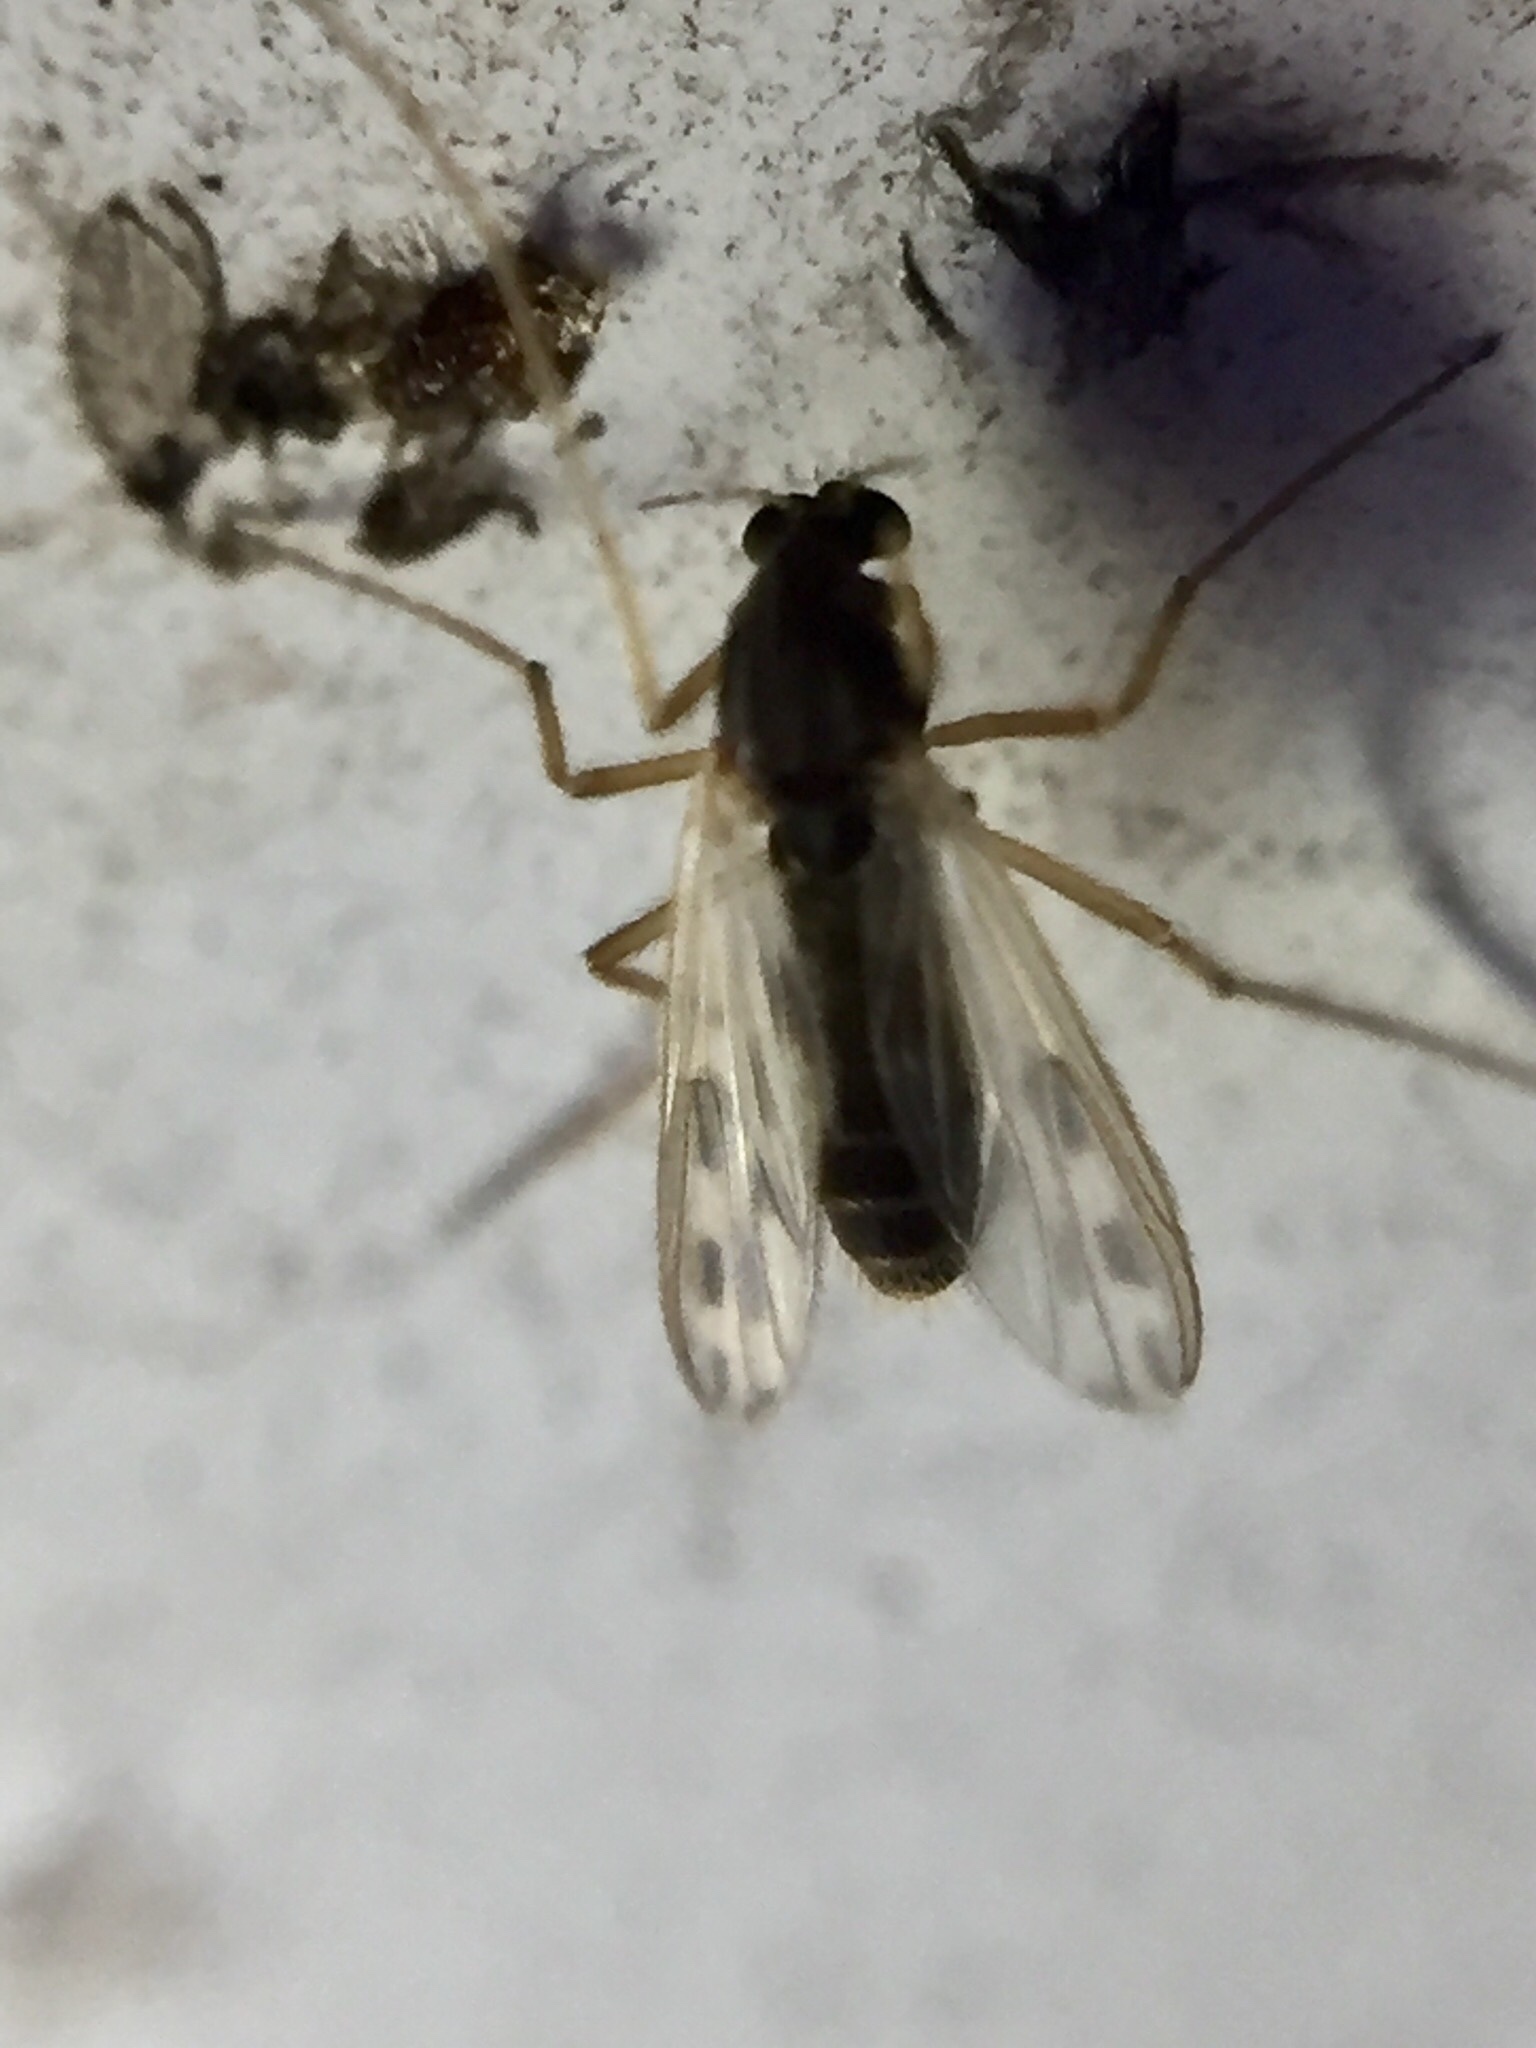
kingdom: Animalia
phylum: Arthropoda
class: Insecta
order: Diptera
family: Chironomidae
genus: Polypedilum
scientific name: Polypedilum pavidus
